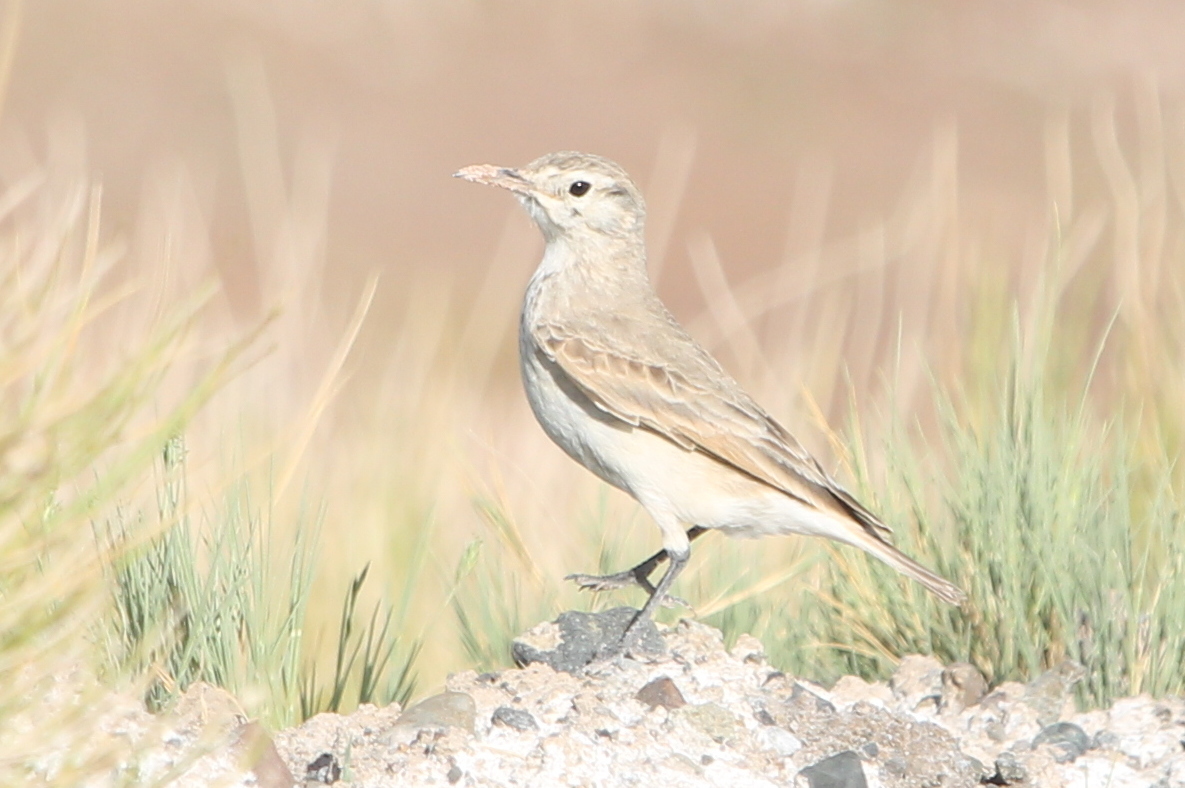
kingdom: Animalia
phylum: Chordata
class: Aves
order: Passeriformes
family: Furnariidae
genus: Geositta
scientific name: Geositta cunicularia
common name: Common miner
